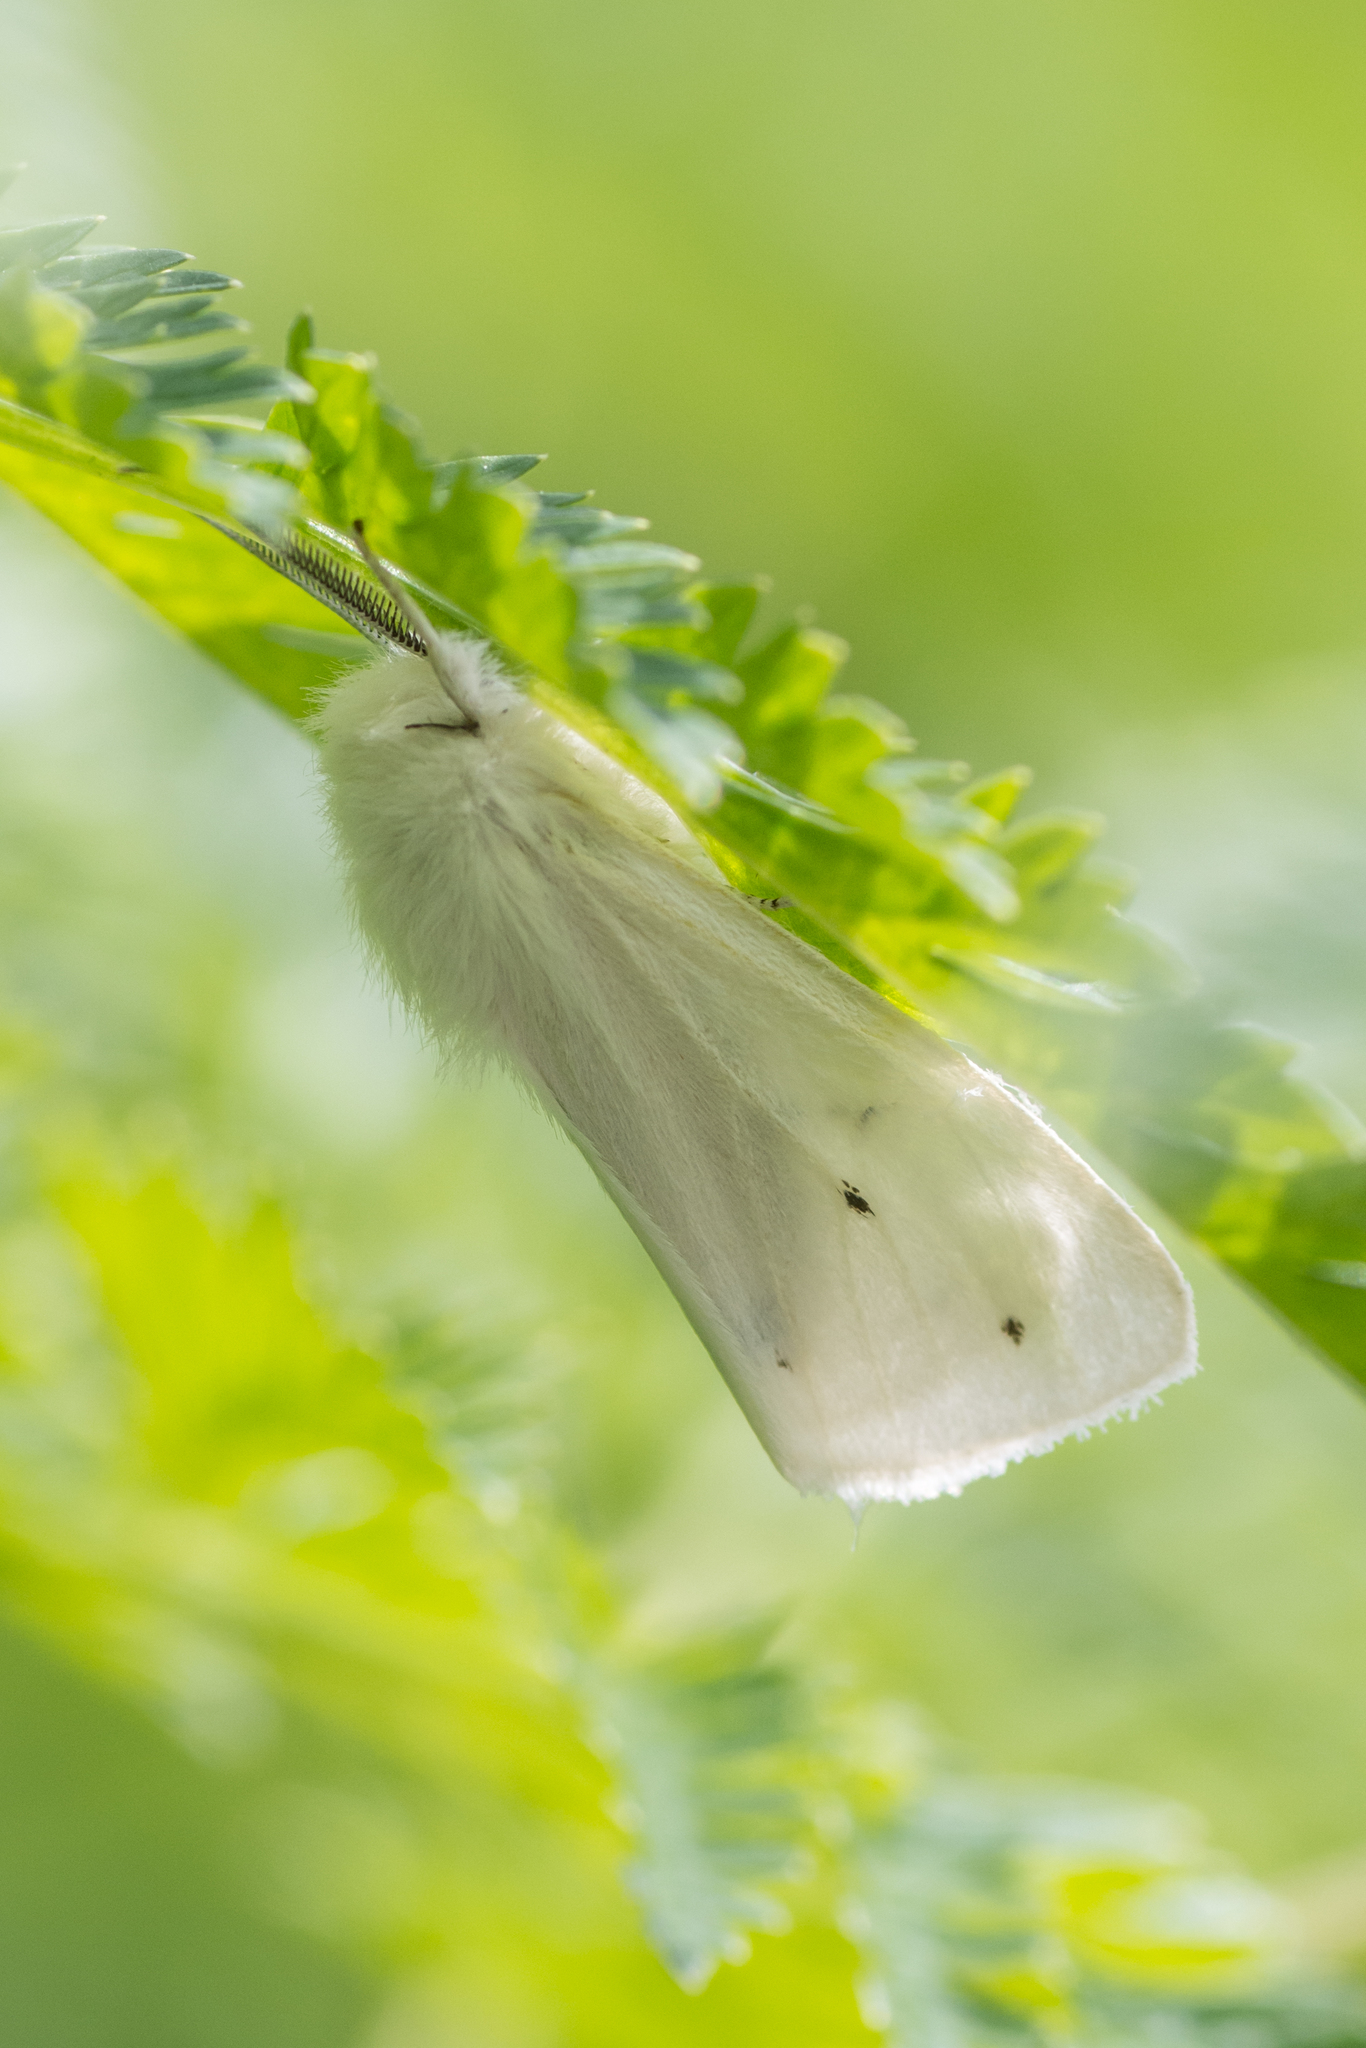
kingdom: Animalia
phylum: Arthropoda
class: Insecta
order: Lepidoptera
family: Erebidae
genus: Spilosoma
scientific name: Spilosoma virginica
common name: Virginia tiger moth
